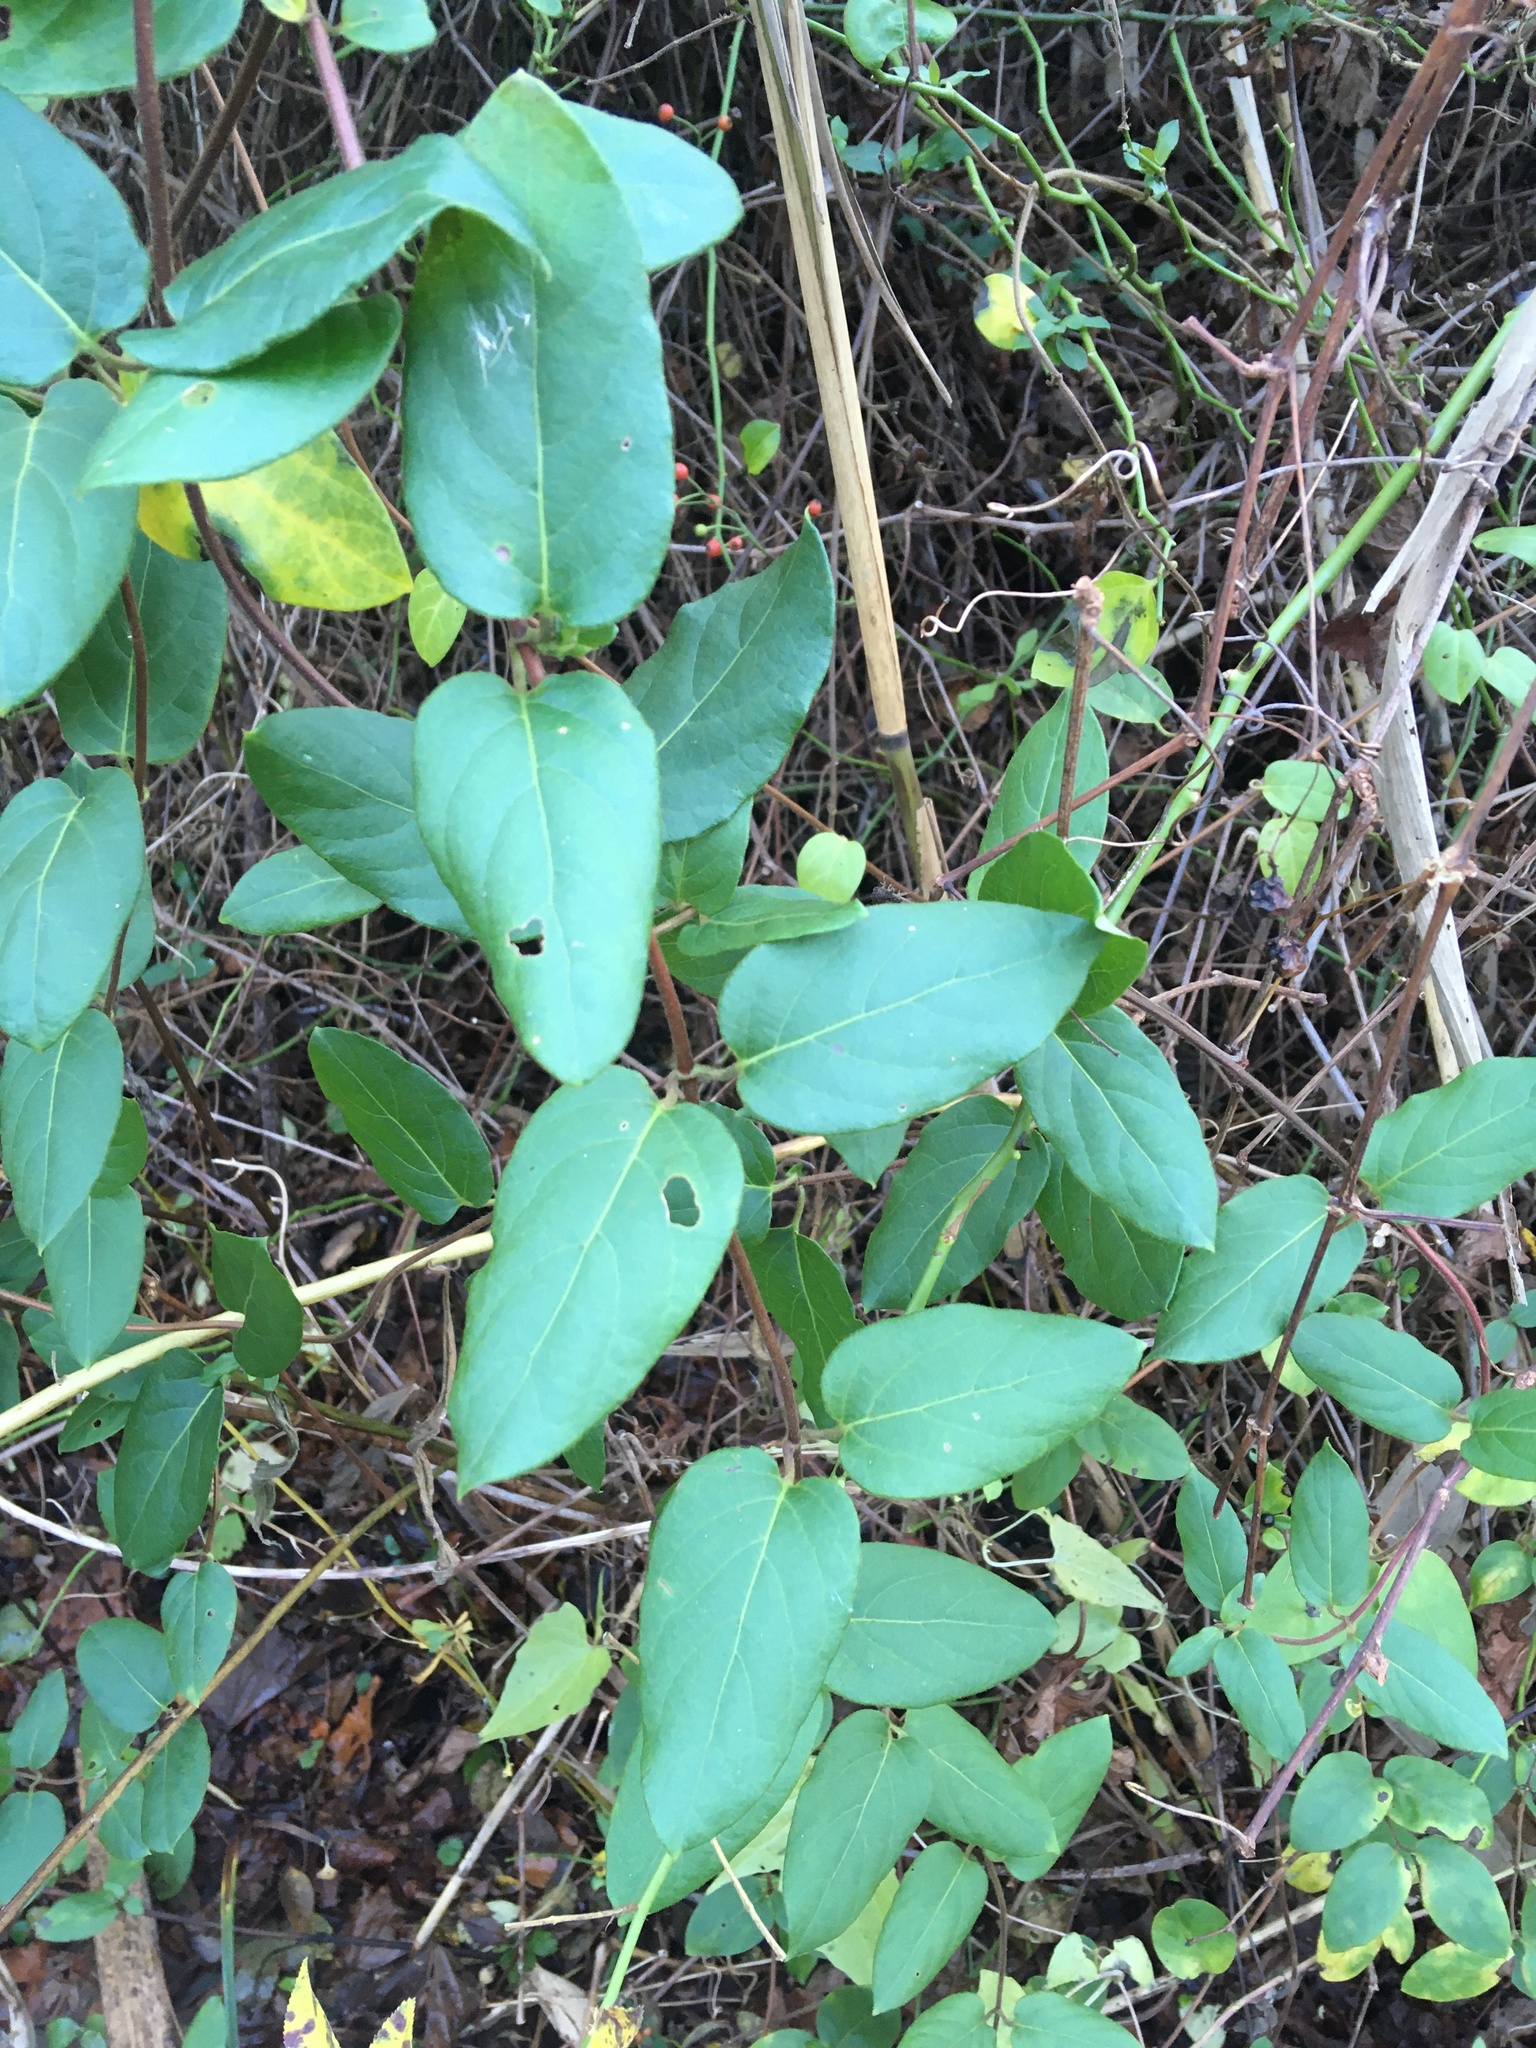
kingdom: Plantae
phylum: Tracheophyta
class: Magnoliopsida
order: Dipsacales
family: Caprifoliaceae
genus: Lonicera
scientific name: Lonicera japonica
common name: Japanese honeysuckle
